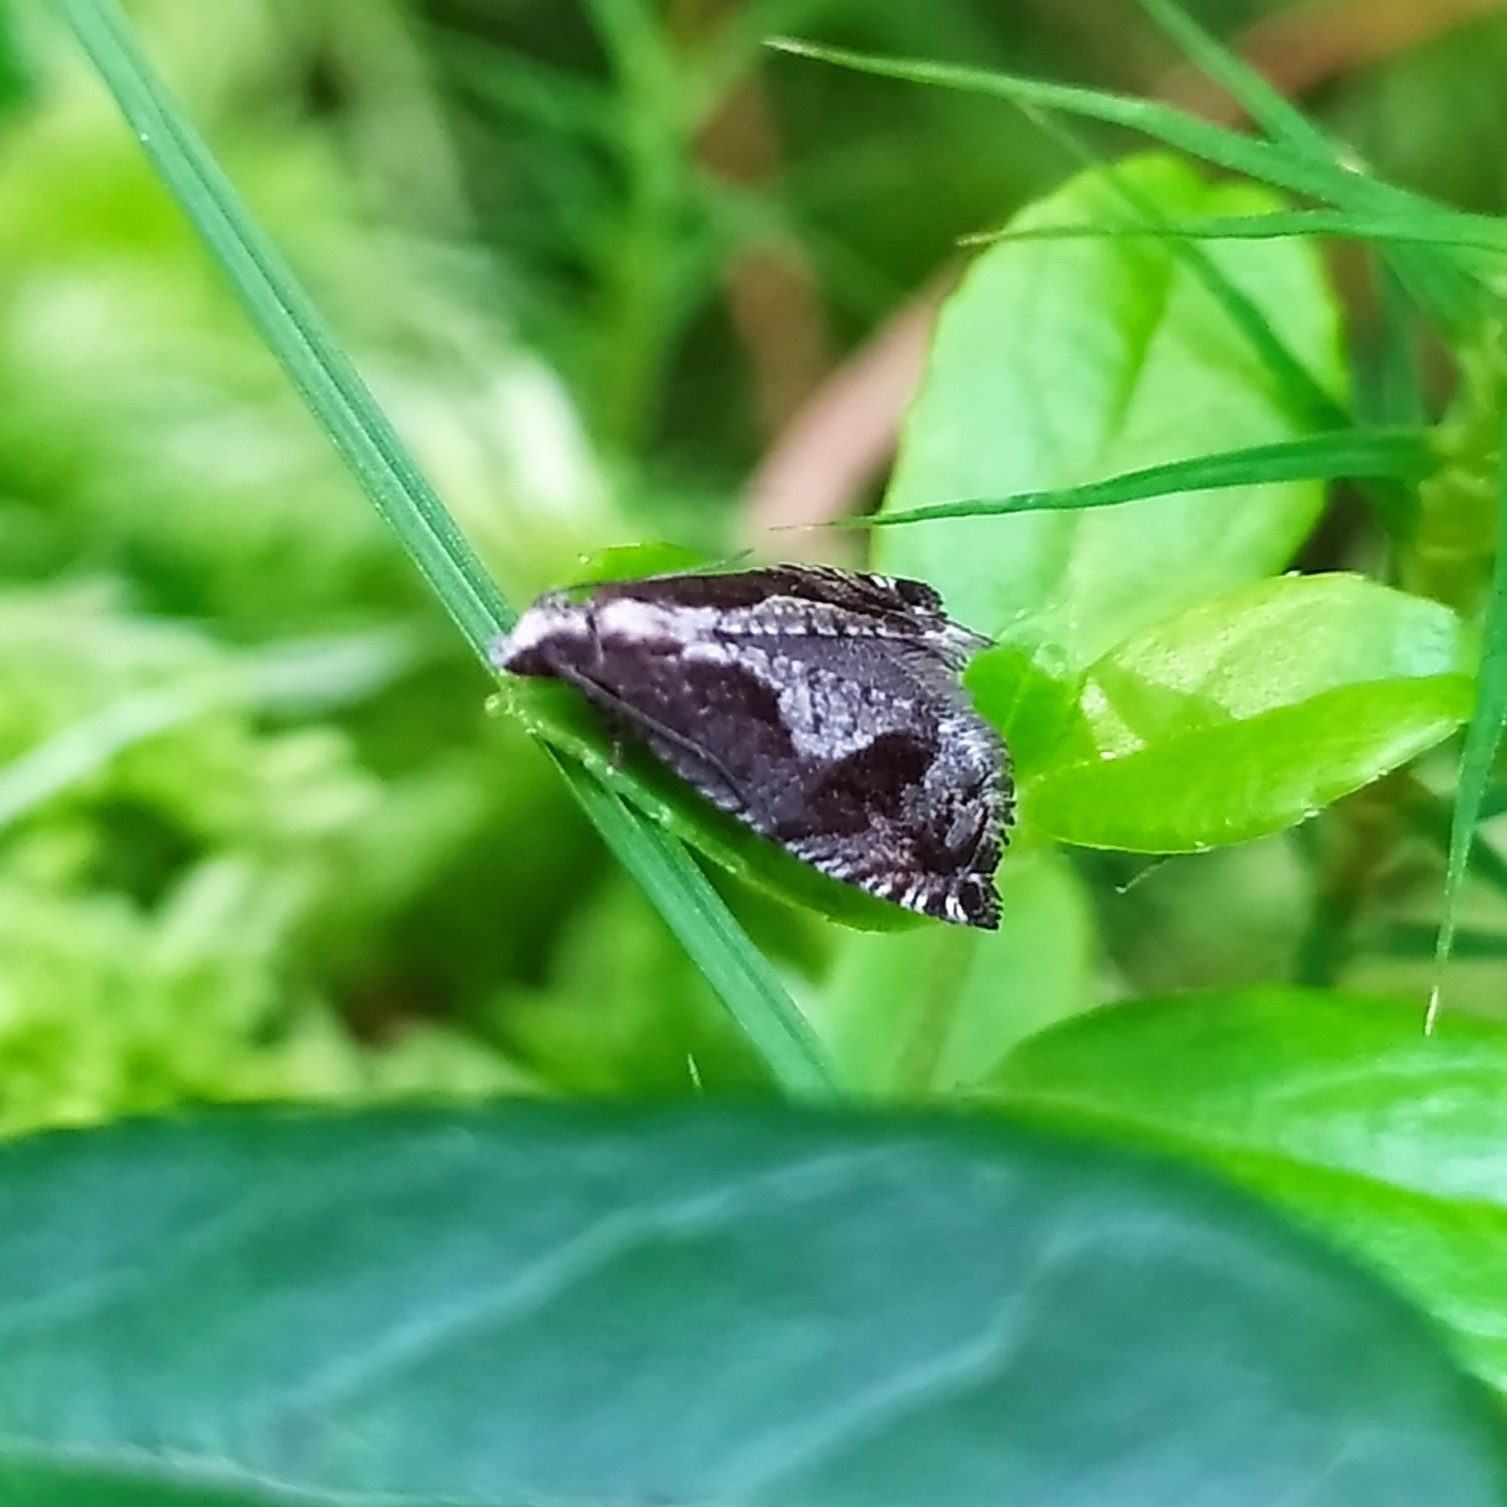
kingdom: Animalia
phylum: Arthropoda
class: Insecta
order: Lepidoptera
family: Tortricidae
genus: Rhopobota
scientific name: Rhopobota ustomaculana
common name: Northern bell
